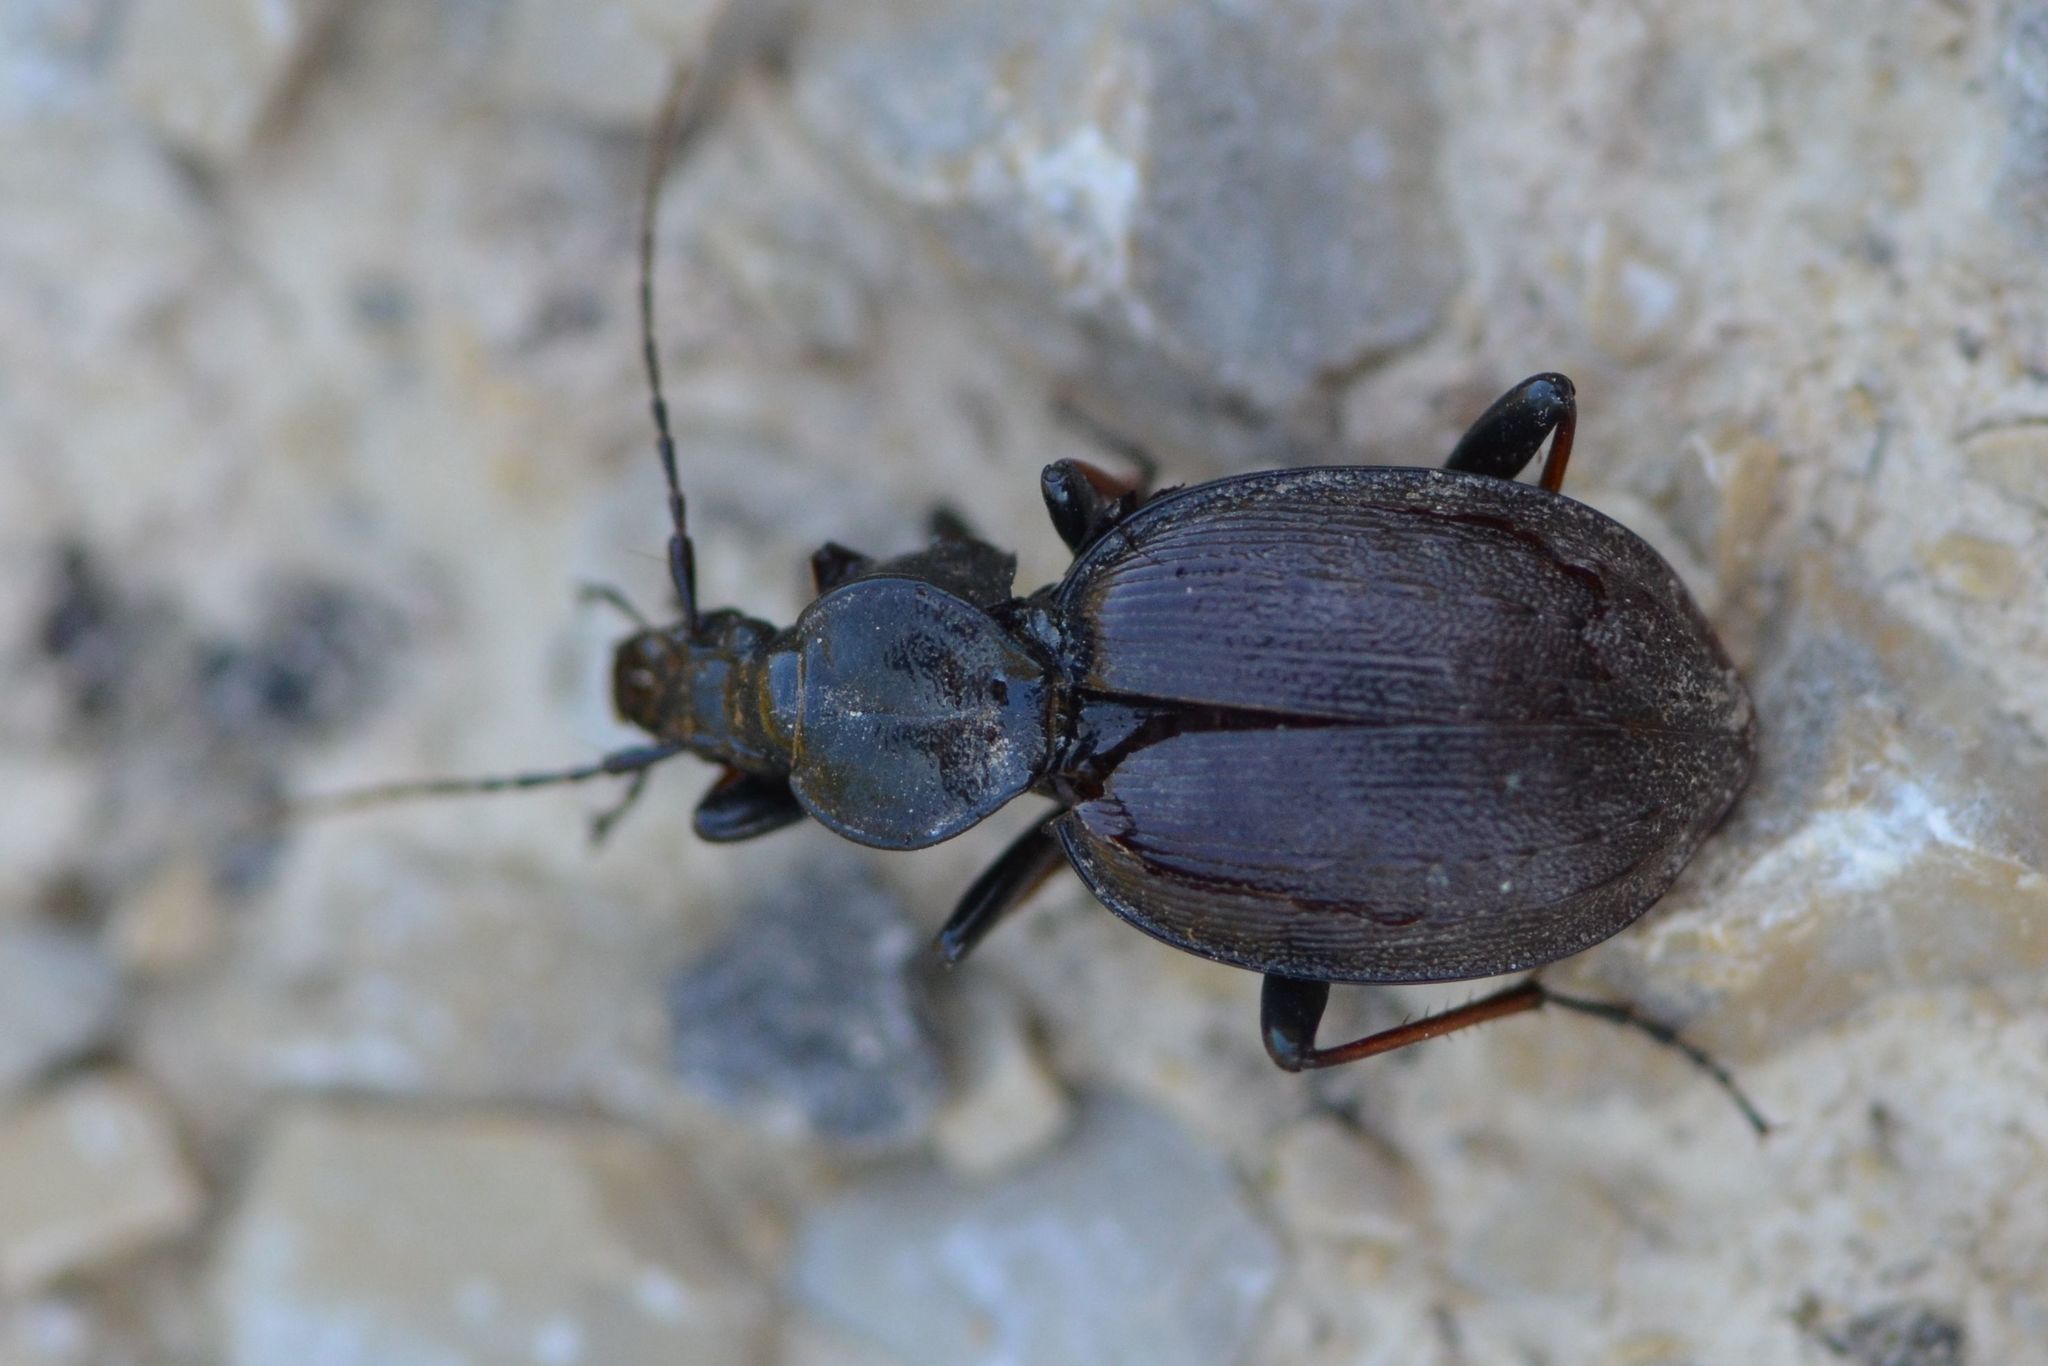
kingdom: Animalia
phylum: Arthropoda
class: Insecta
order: Coleoptera
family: Carabidae
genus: Cychrus
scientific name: Cychrus attenuatus
